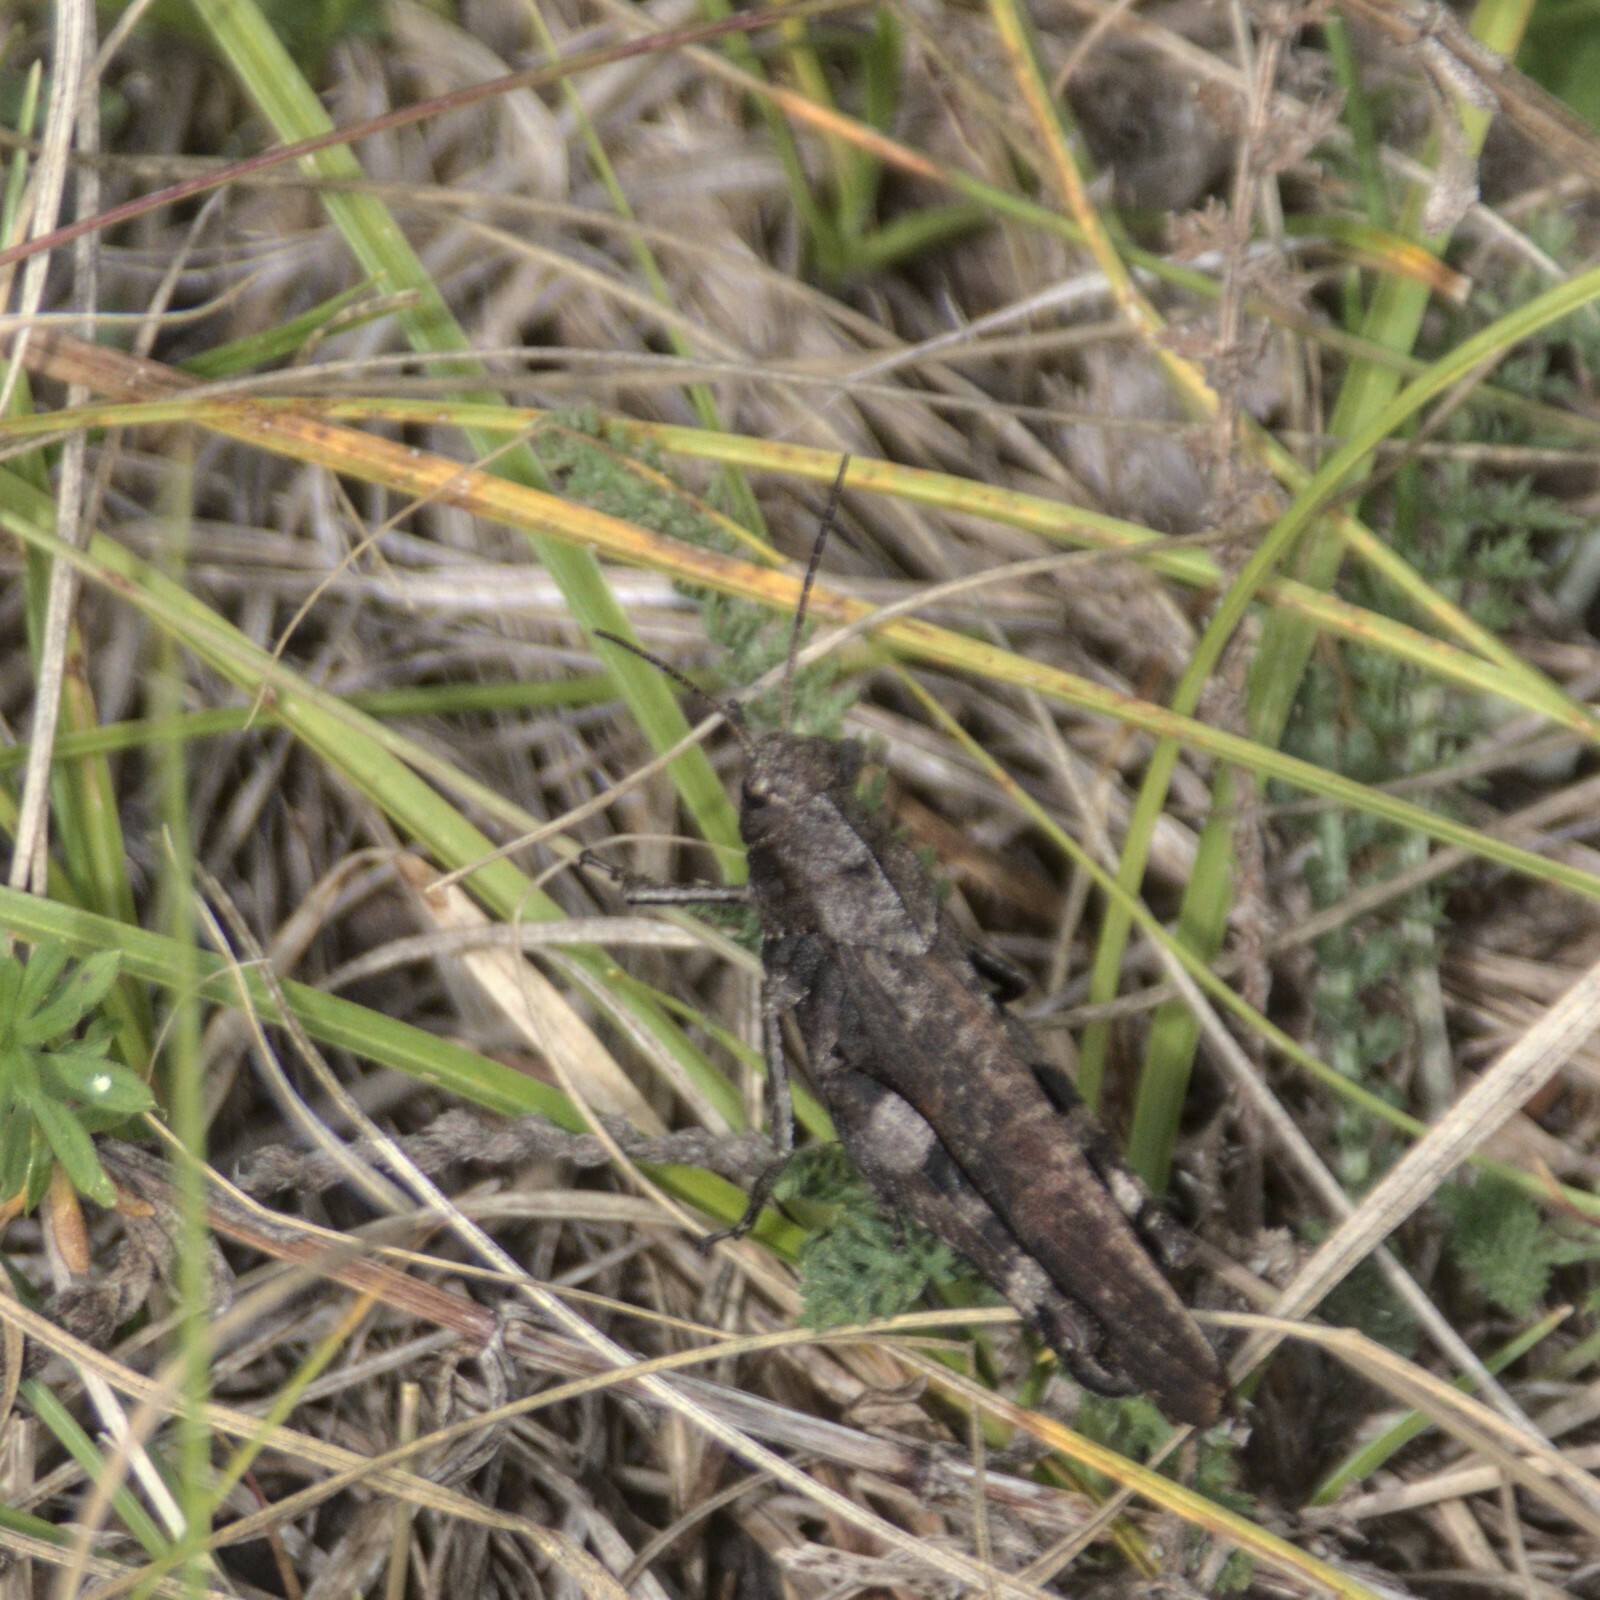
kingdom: Animalia
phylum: Arthropoda
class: Insecta
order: Orthoptera
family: Acrididae
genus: Psophus
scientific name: Psophus stridulus
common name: Rattle grasshopper
